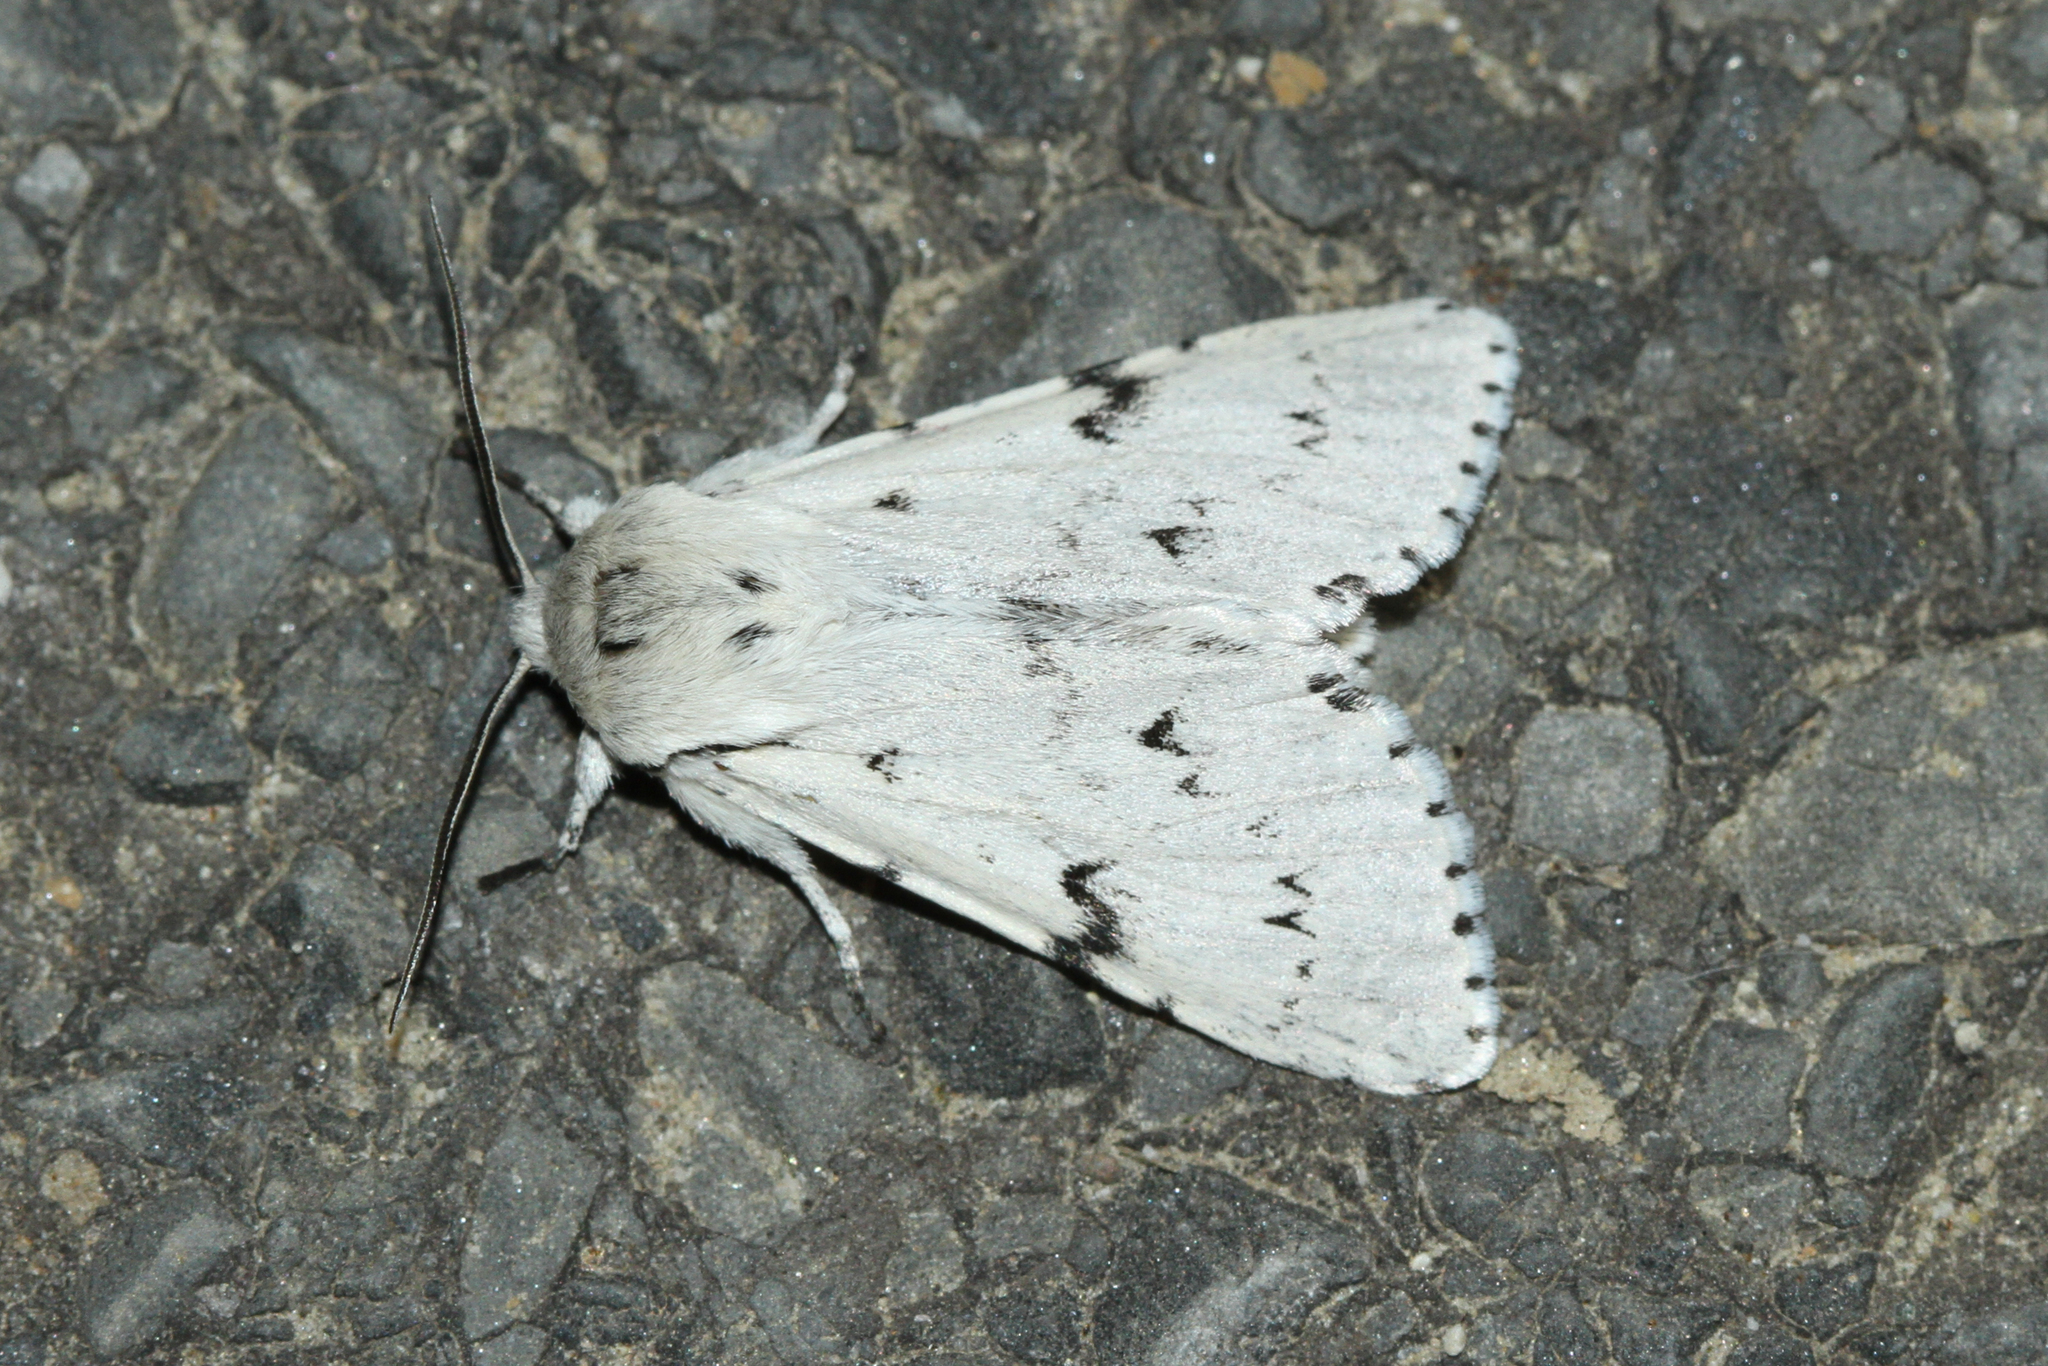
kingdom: Animalia
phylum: Arthropoda
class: Insecta
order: Lepidoptera
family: Noctuidae
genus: Acronicta
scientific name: Acronicta leporina
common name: Miller
